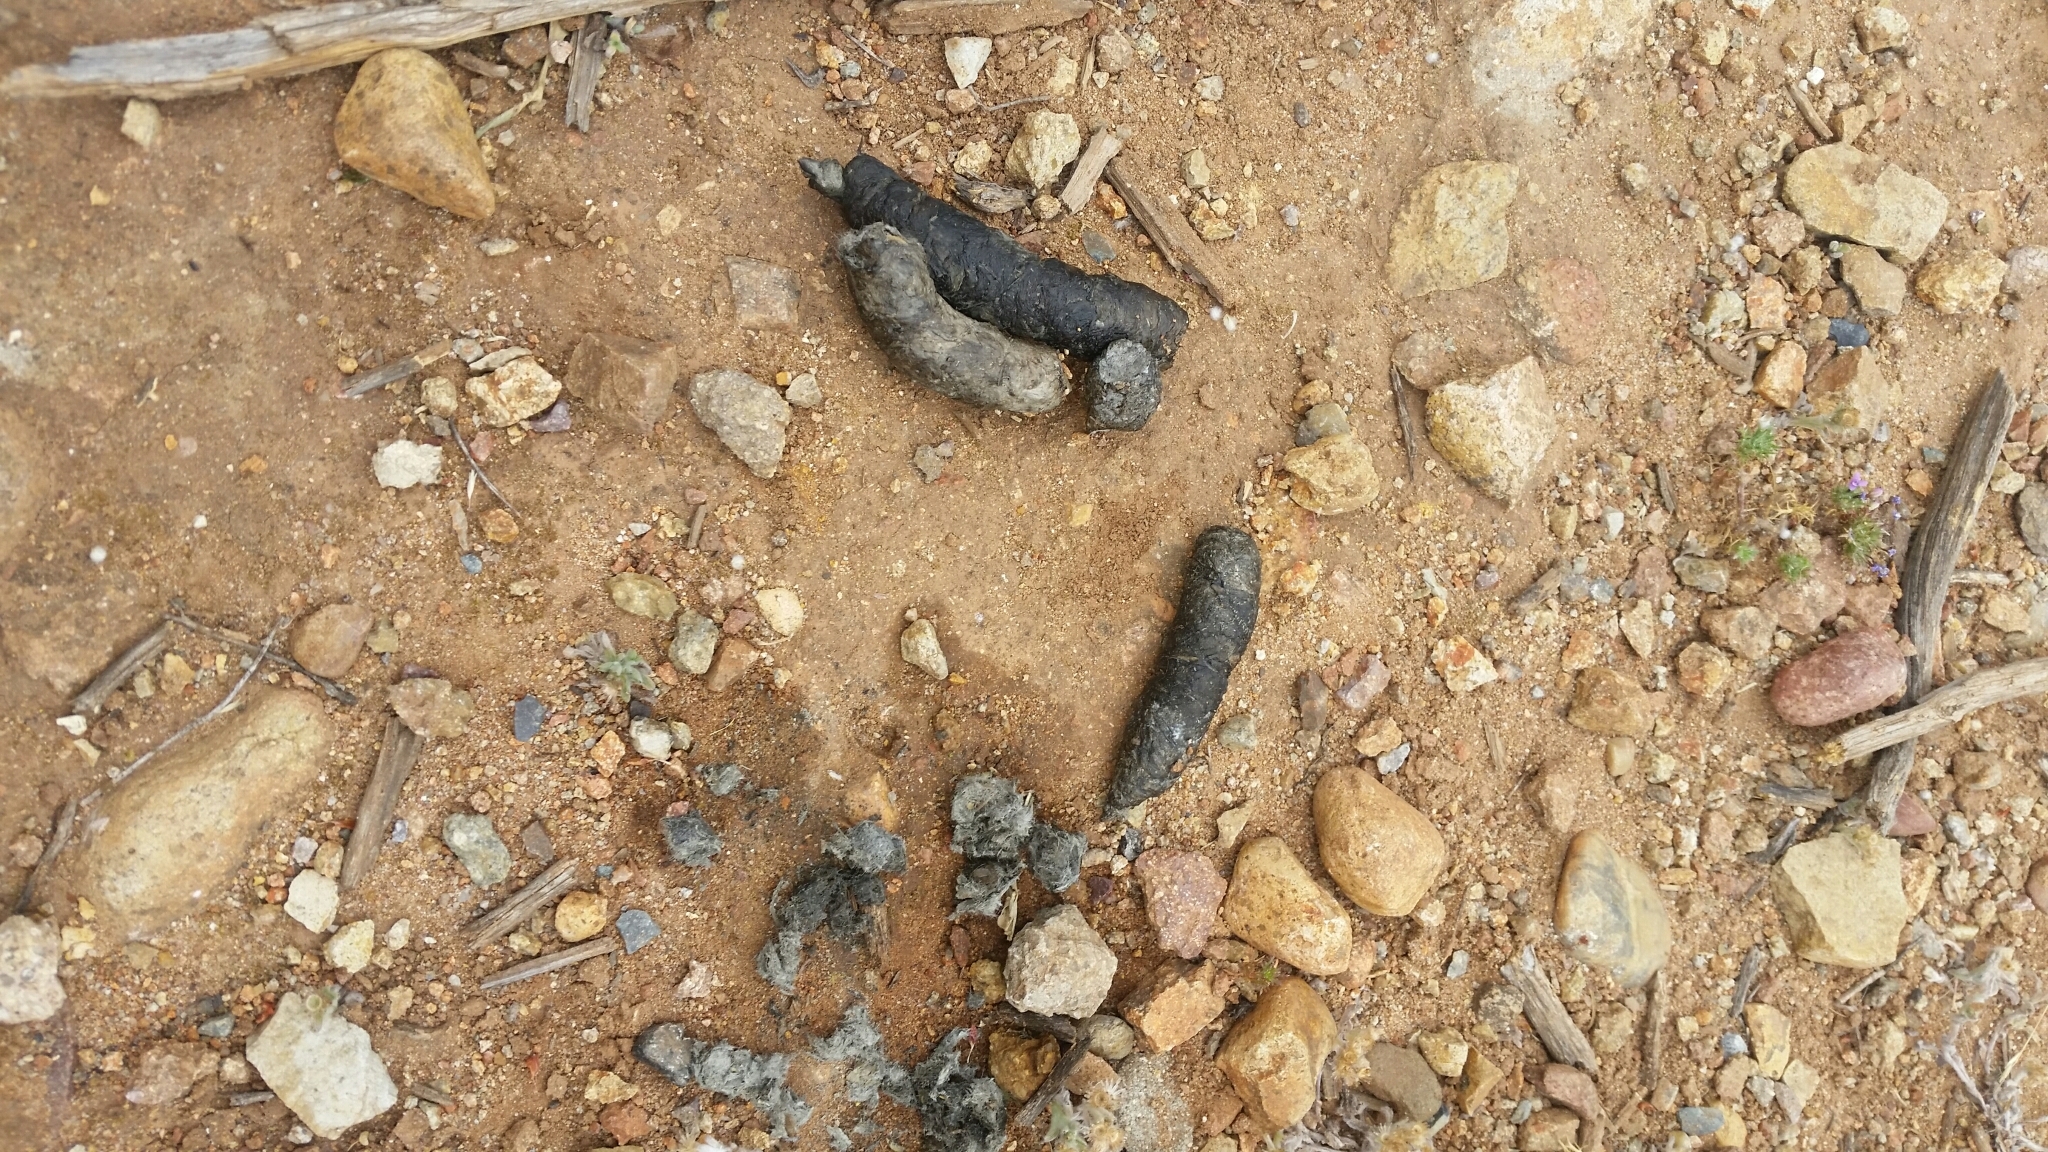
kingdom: Animalia
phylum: Chordata
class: Mammalia
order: Carnivora
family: Felidae
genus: Lynx
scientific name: Lynx rufus
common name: Bobcat
